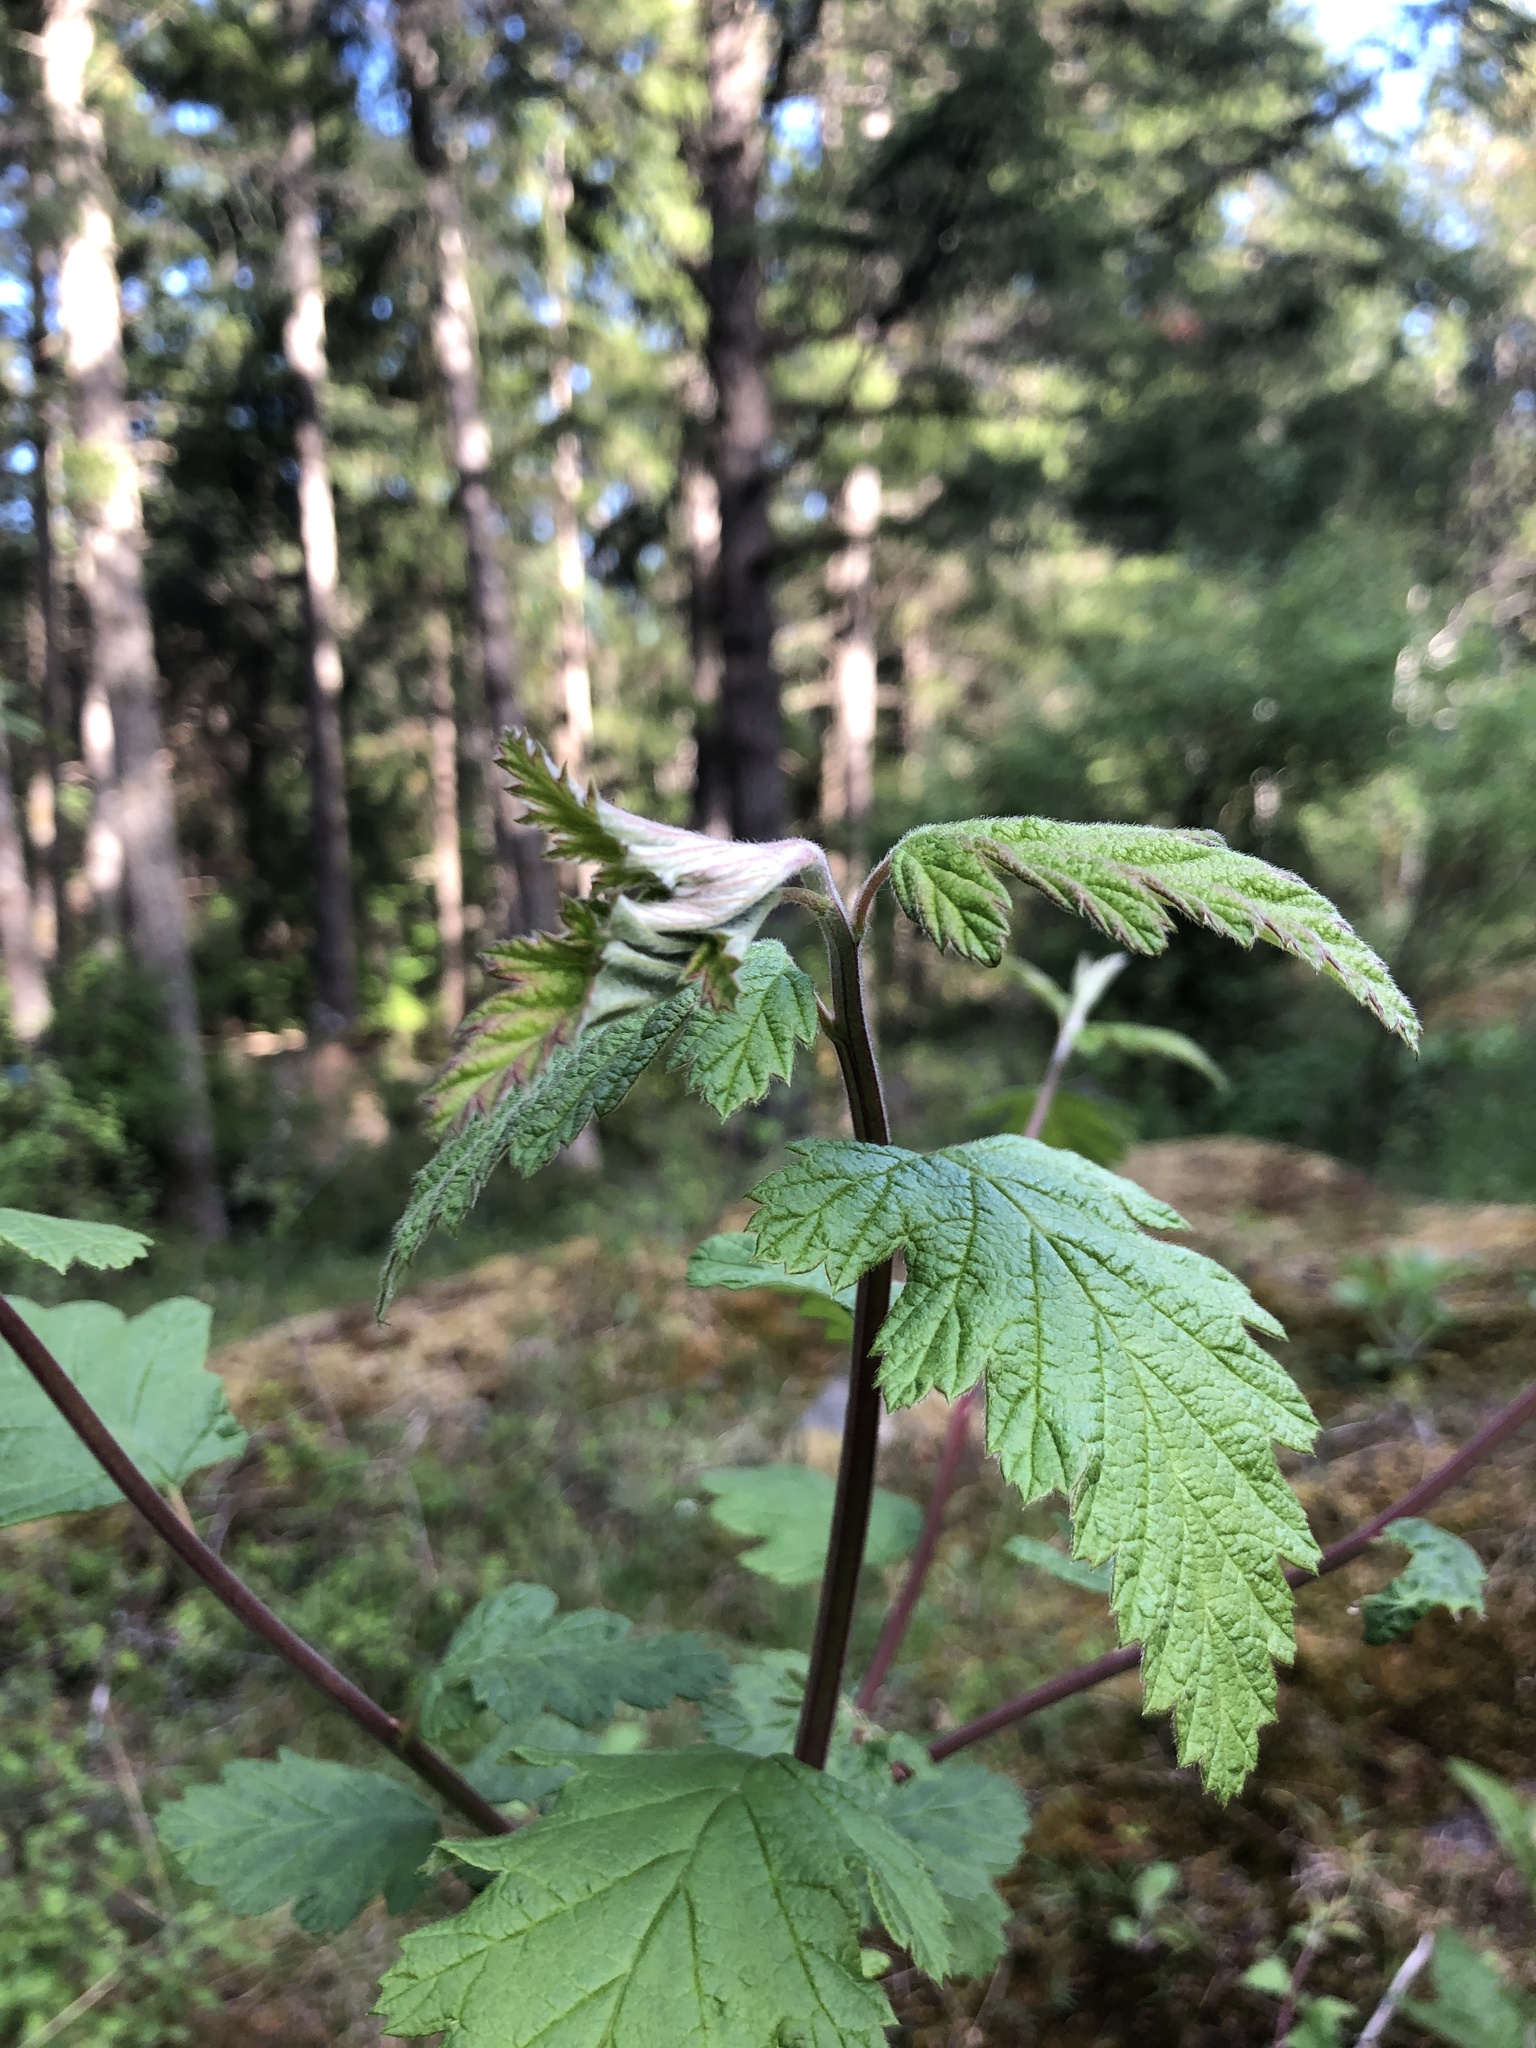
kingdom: Plantae
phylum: Tracheophyta
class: Magnoliopsida
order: Rosales
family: Rosaceae
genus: Holodiscus
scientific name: Holodiscus discolor
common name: Oceanspray
